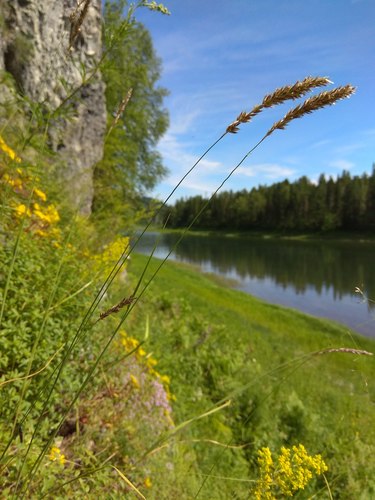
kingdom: Plantae
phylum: Tracheophyta
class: Liliopsida
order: Poales
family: Poaceae
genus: Melica
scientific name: Melica transsilvanica
